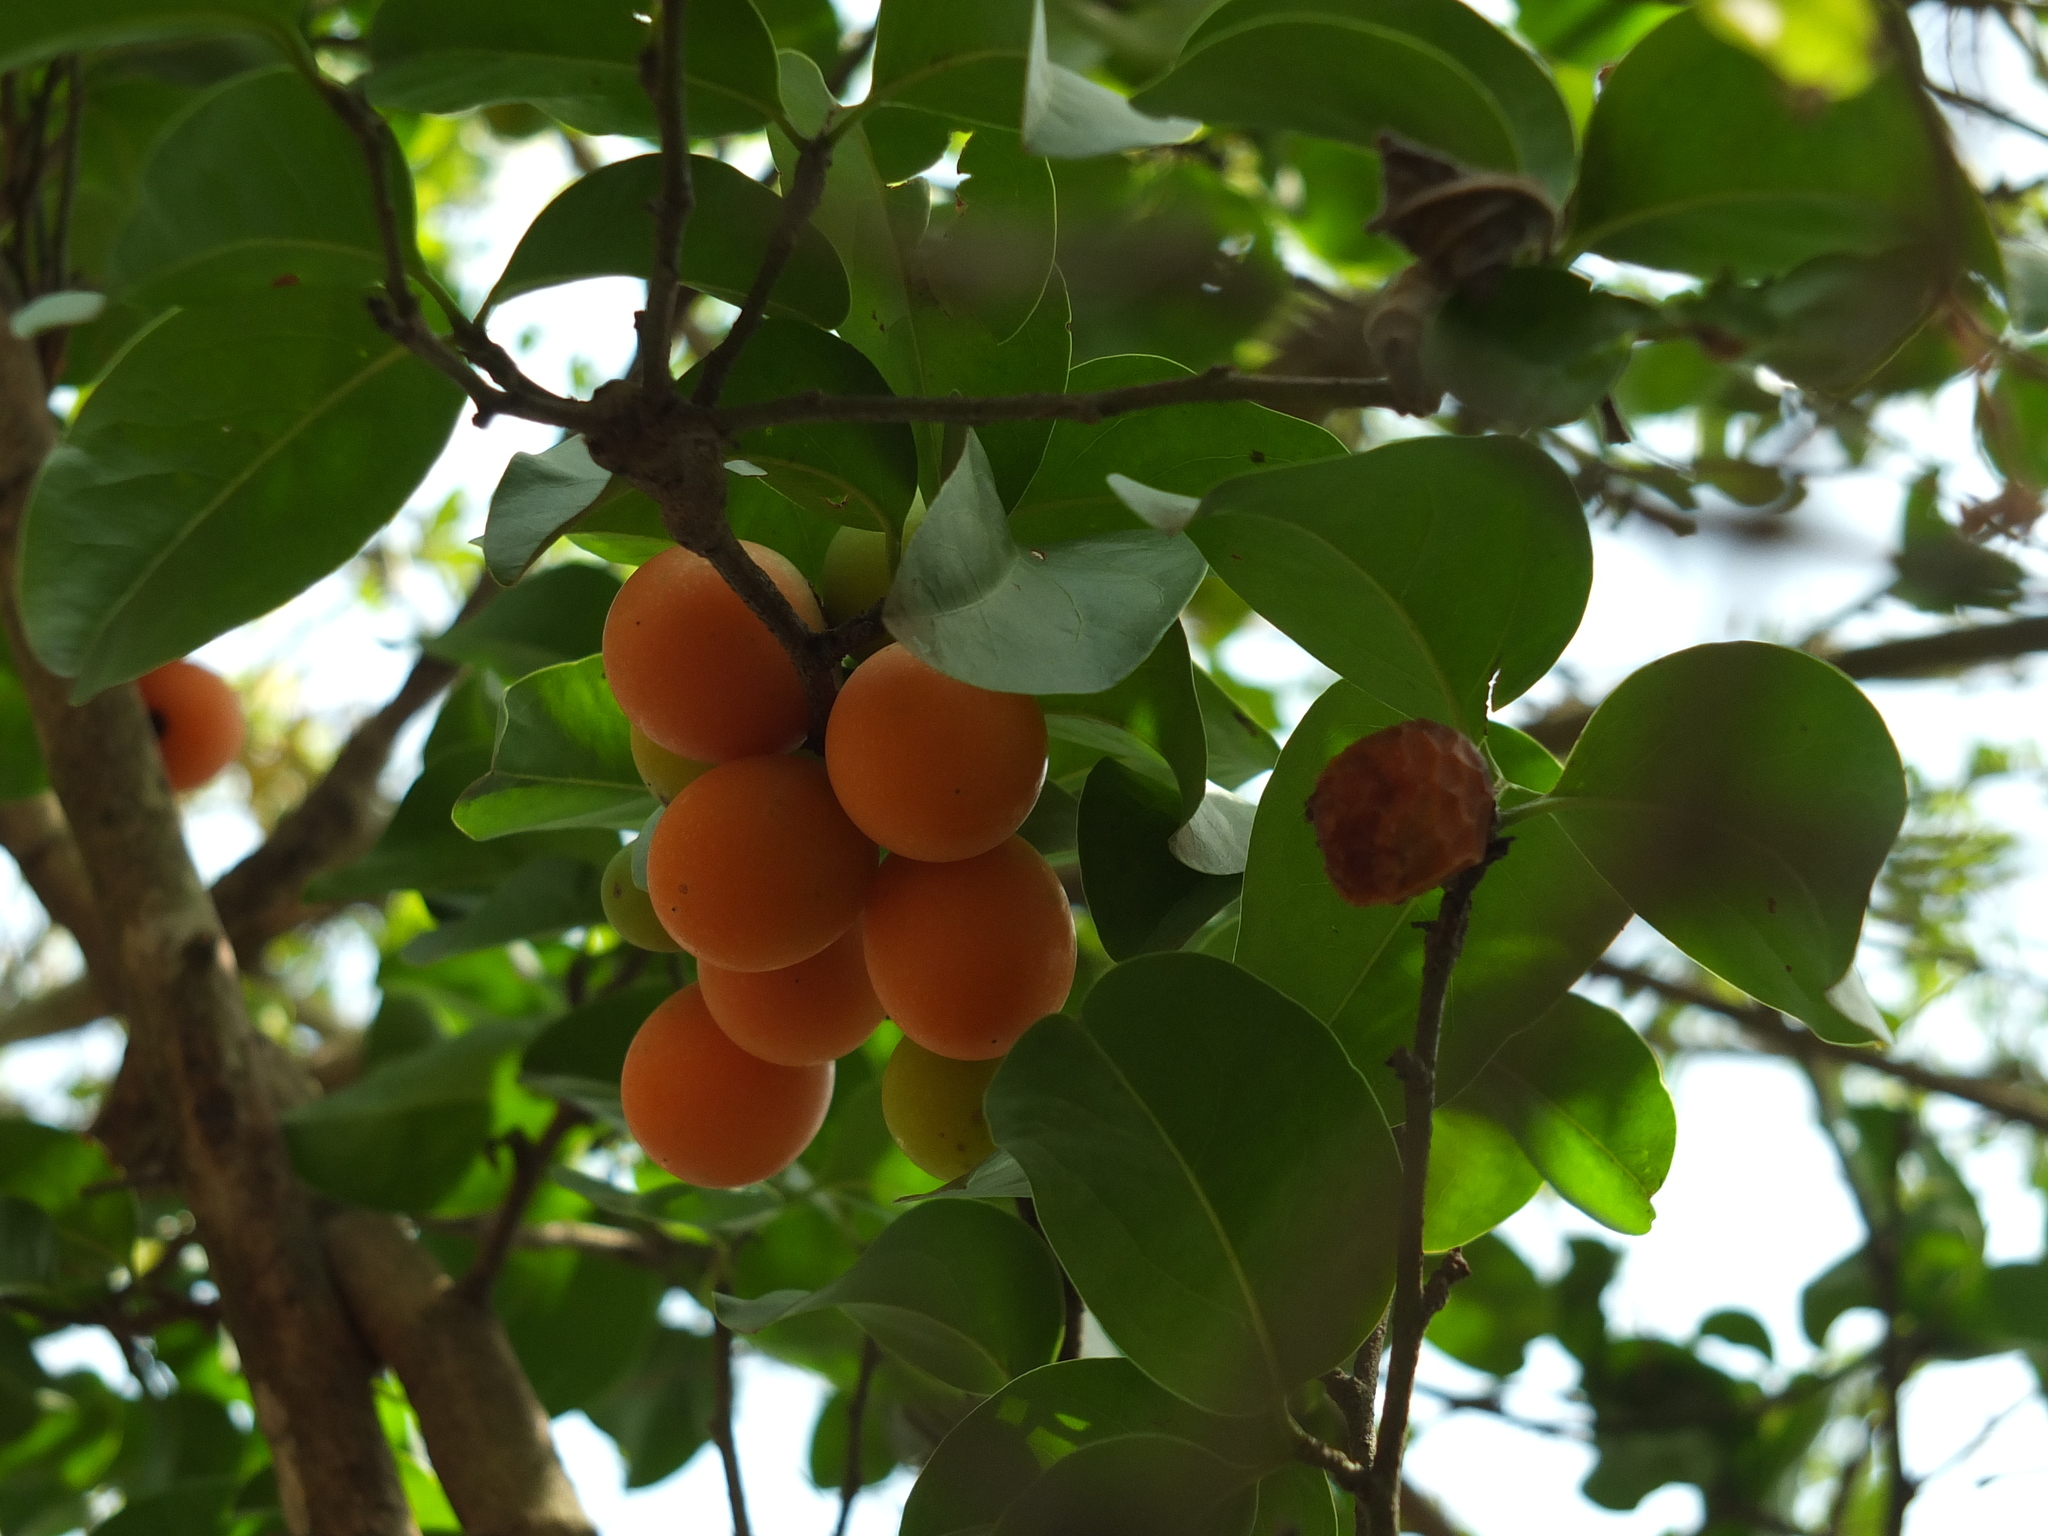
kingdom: Plantae
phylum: Tracheophyta
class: Magnoliopsida
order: Santalales
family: Ximeniaceae
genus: Ximenia
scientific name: Ximenia americana
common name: Tallowwood
